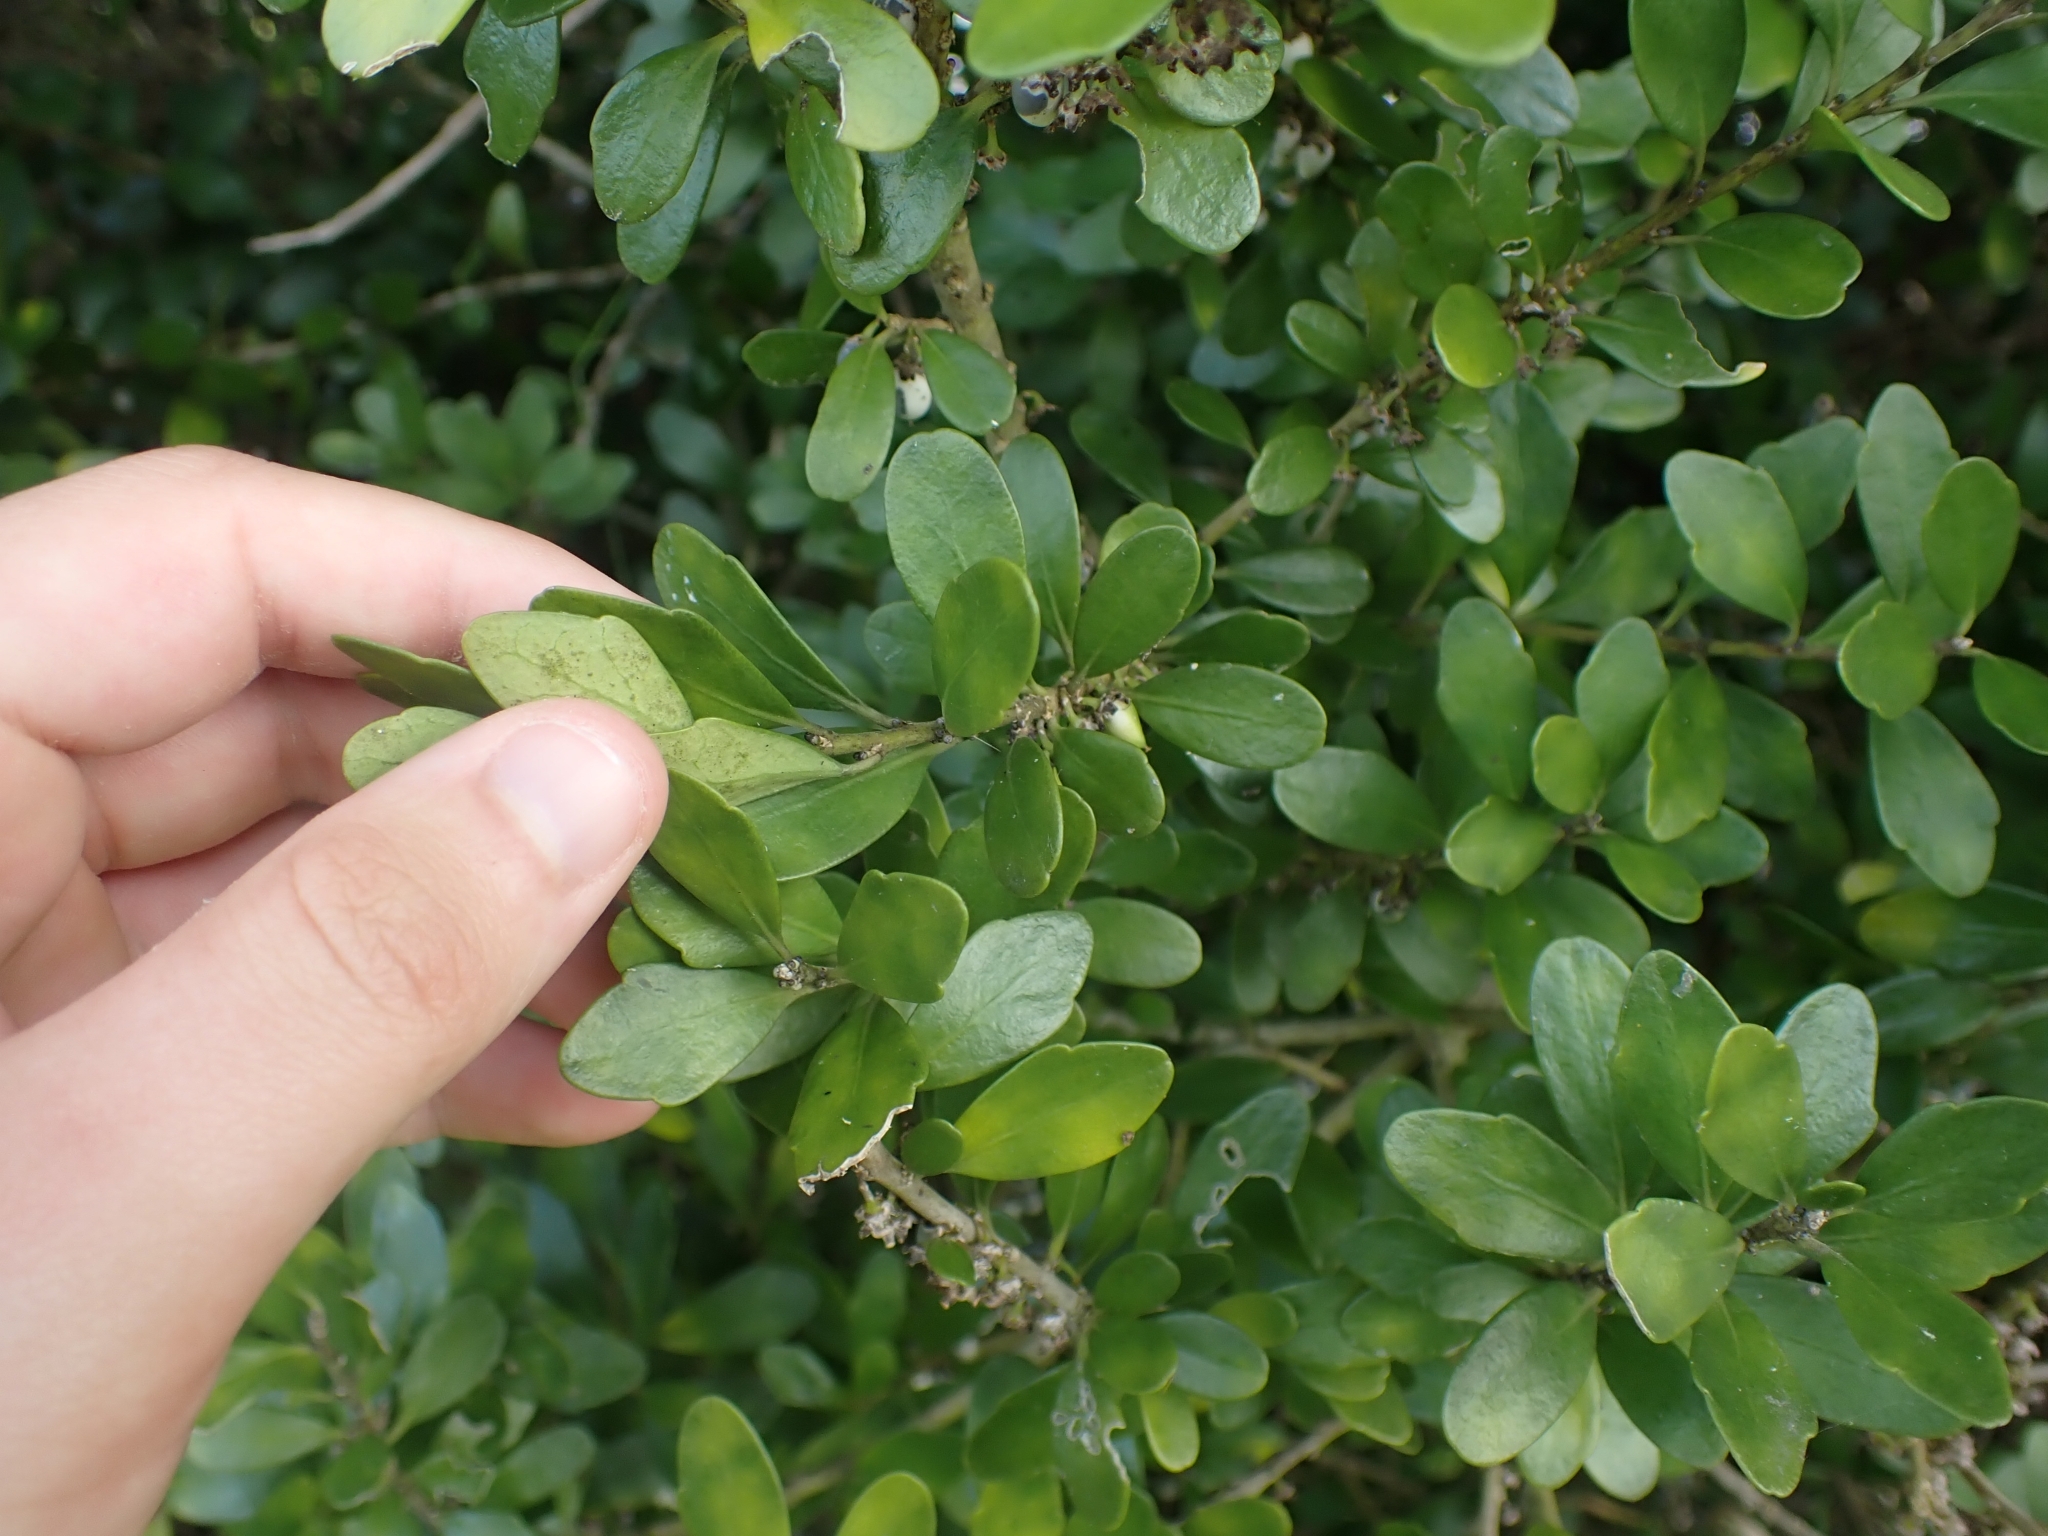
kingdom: Plantae
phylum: Tracheophyta
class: Magnoliopsida
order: Malpighiales
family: Violaceae
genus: Melicytus
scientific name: Melicytus orarius
